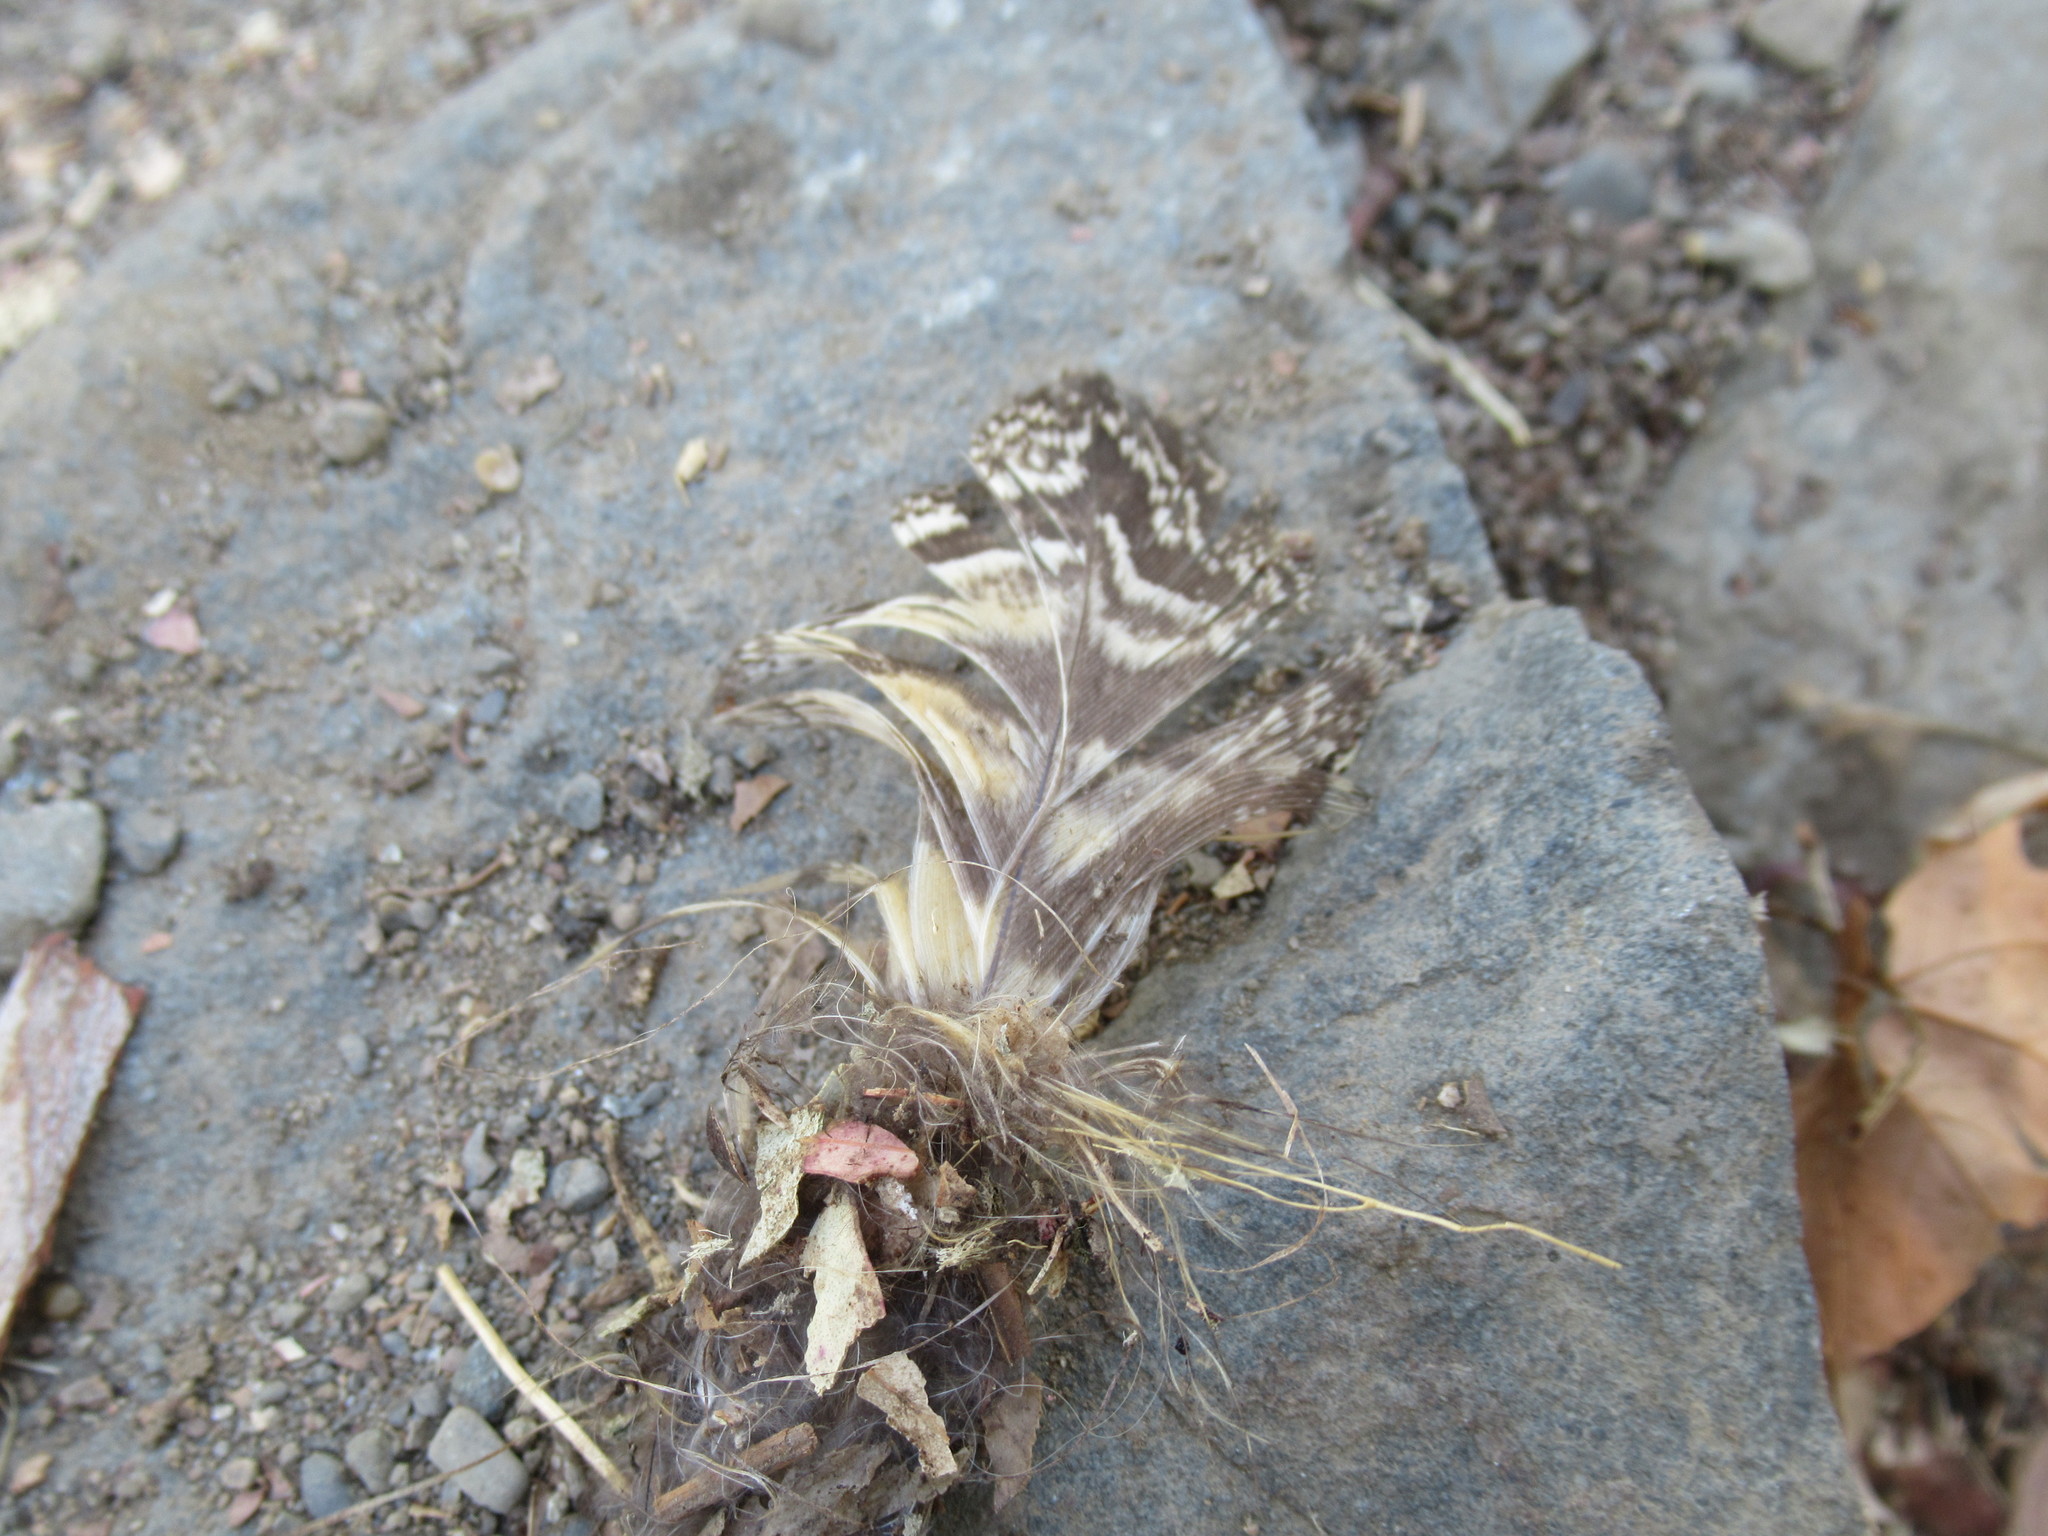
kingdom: Animalia
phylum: Chordata
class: Aves
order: Strigiformes
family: Strigidae
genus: Bubo
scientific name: Bubo virginianus
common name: Great horned owl
